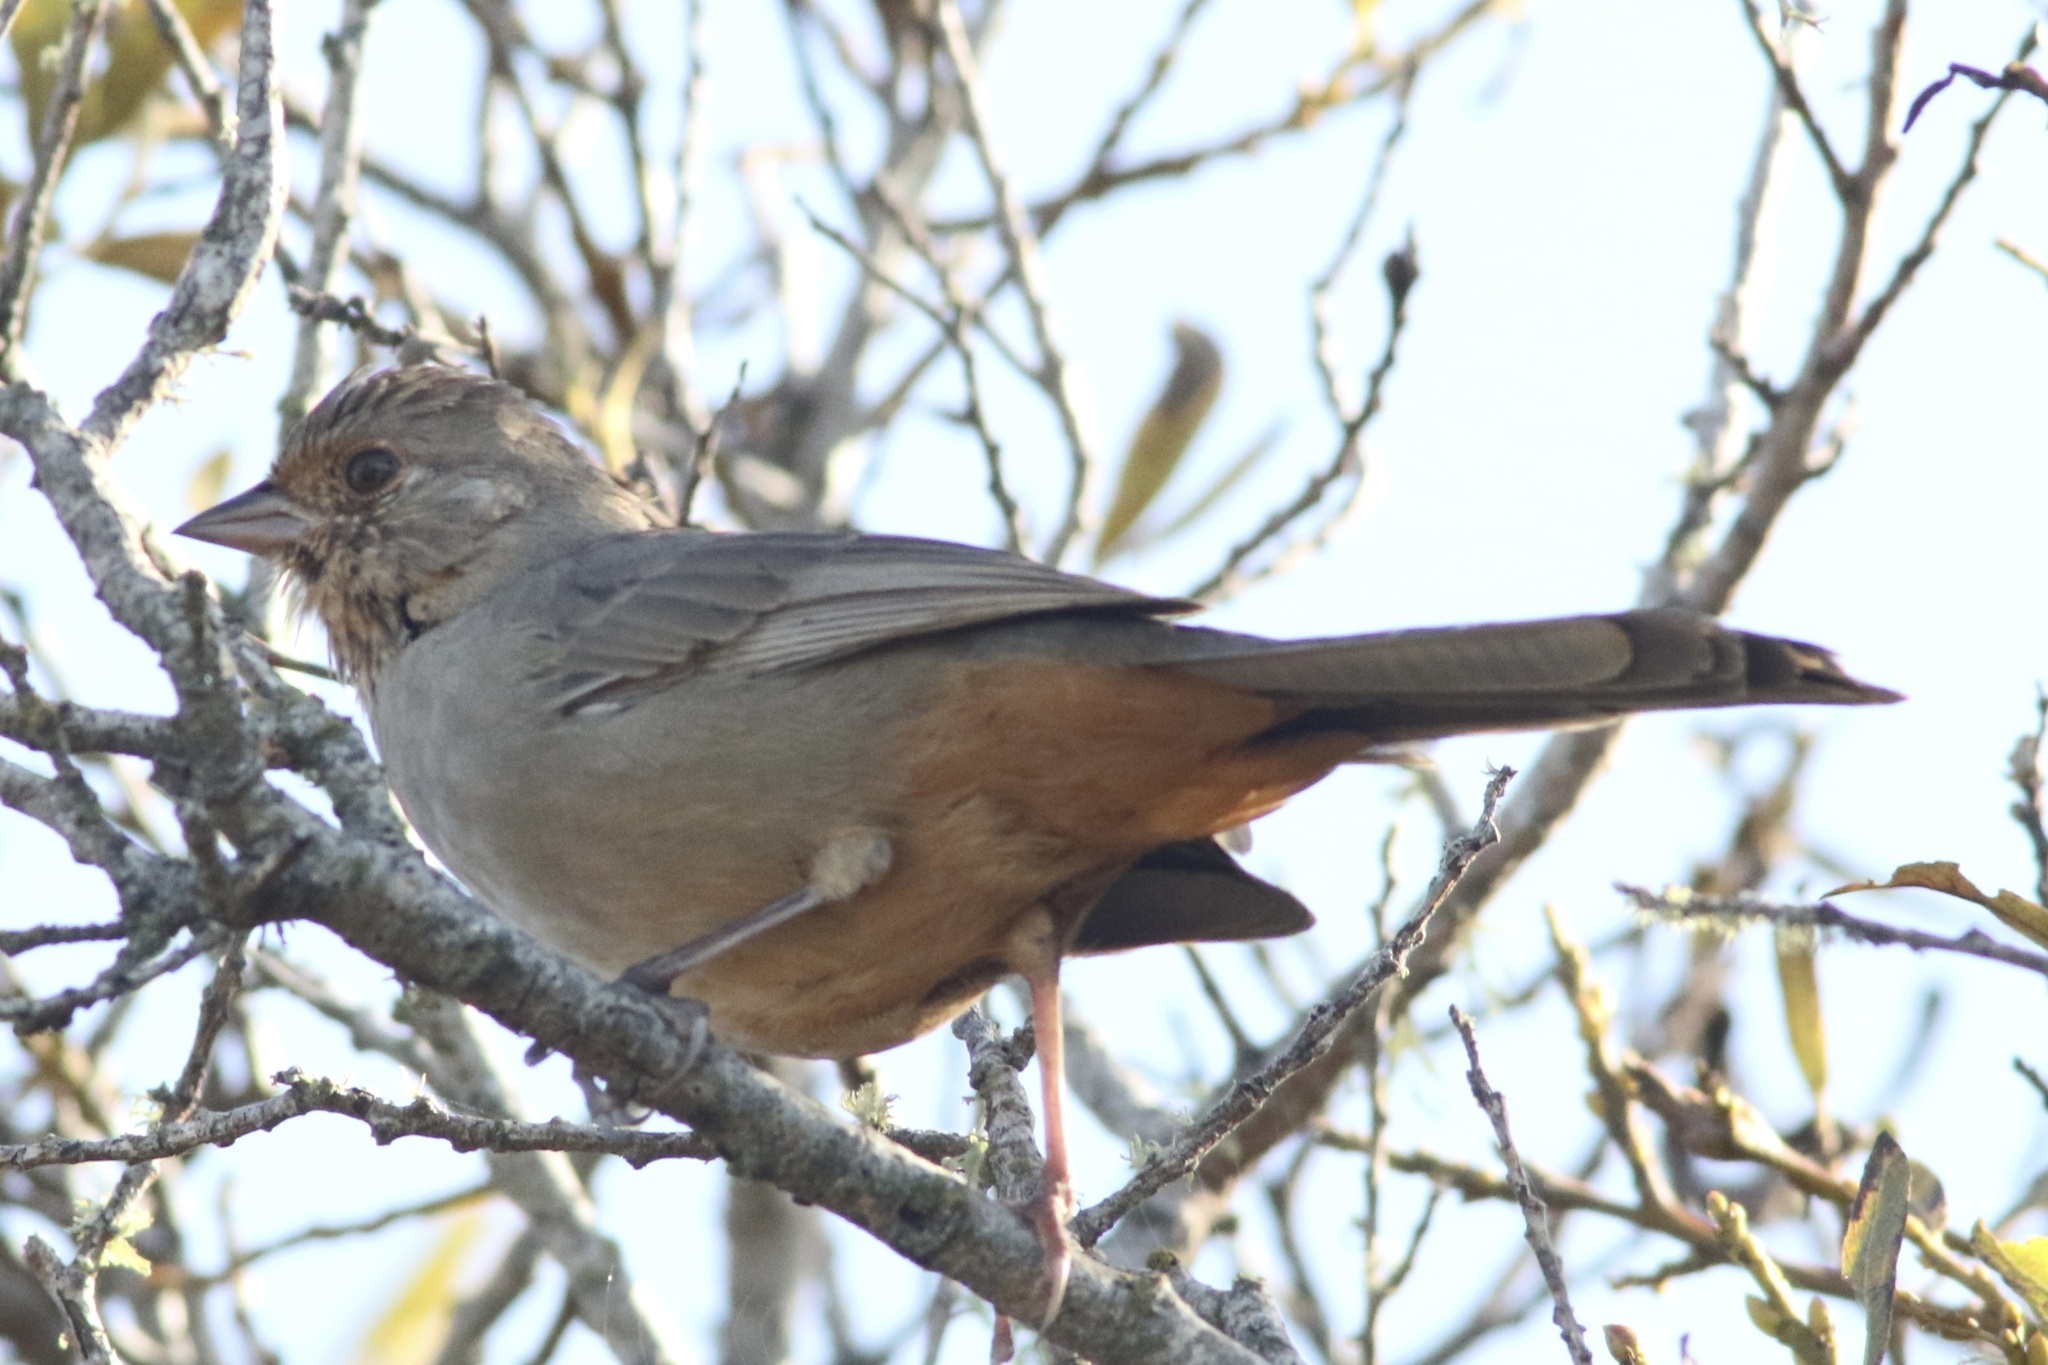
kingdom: Animalia
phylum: Chordata
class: Aves
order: Passeriformes
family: Passerellidae
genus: Melozone
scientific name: Melozone crissalis
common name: California towhee
